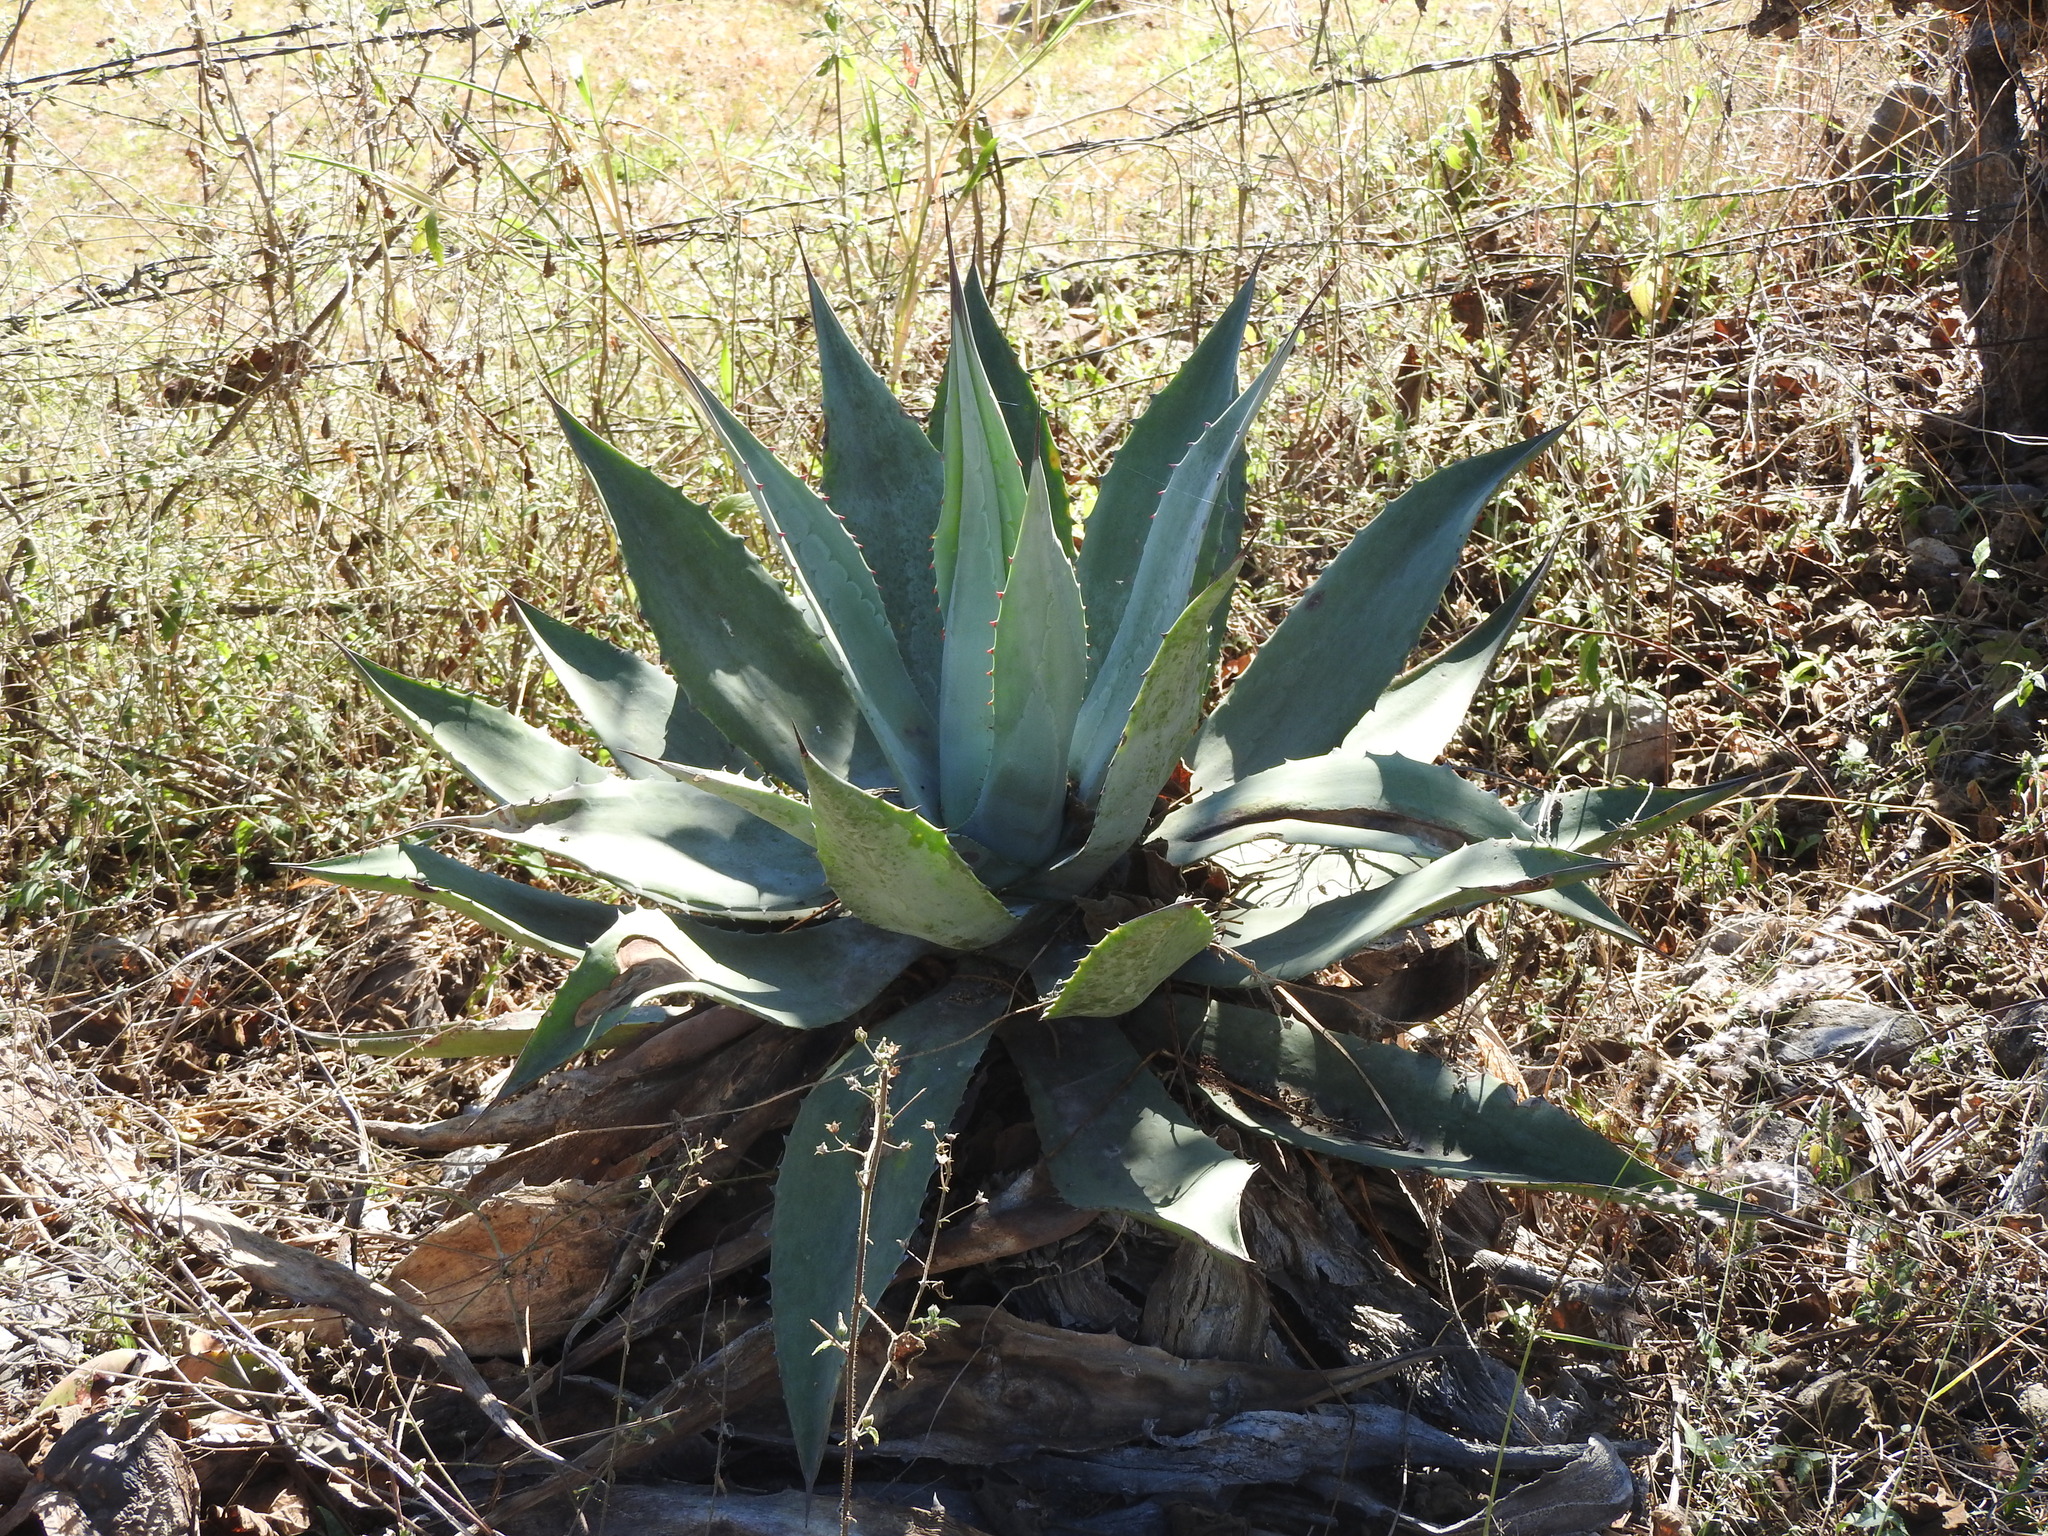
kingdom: Plantae
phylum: Tracheophyta
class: Liliopsida
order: Asparagales
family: Asparagaceae
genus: Agave
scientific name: Agave americana
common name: Centuryplant
